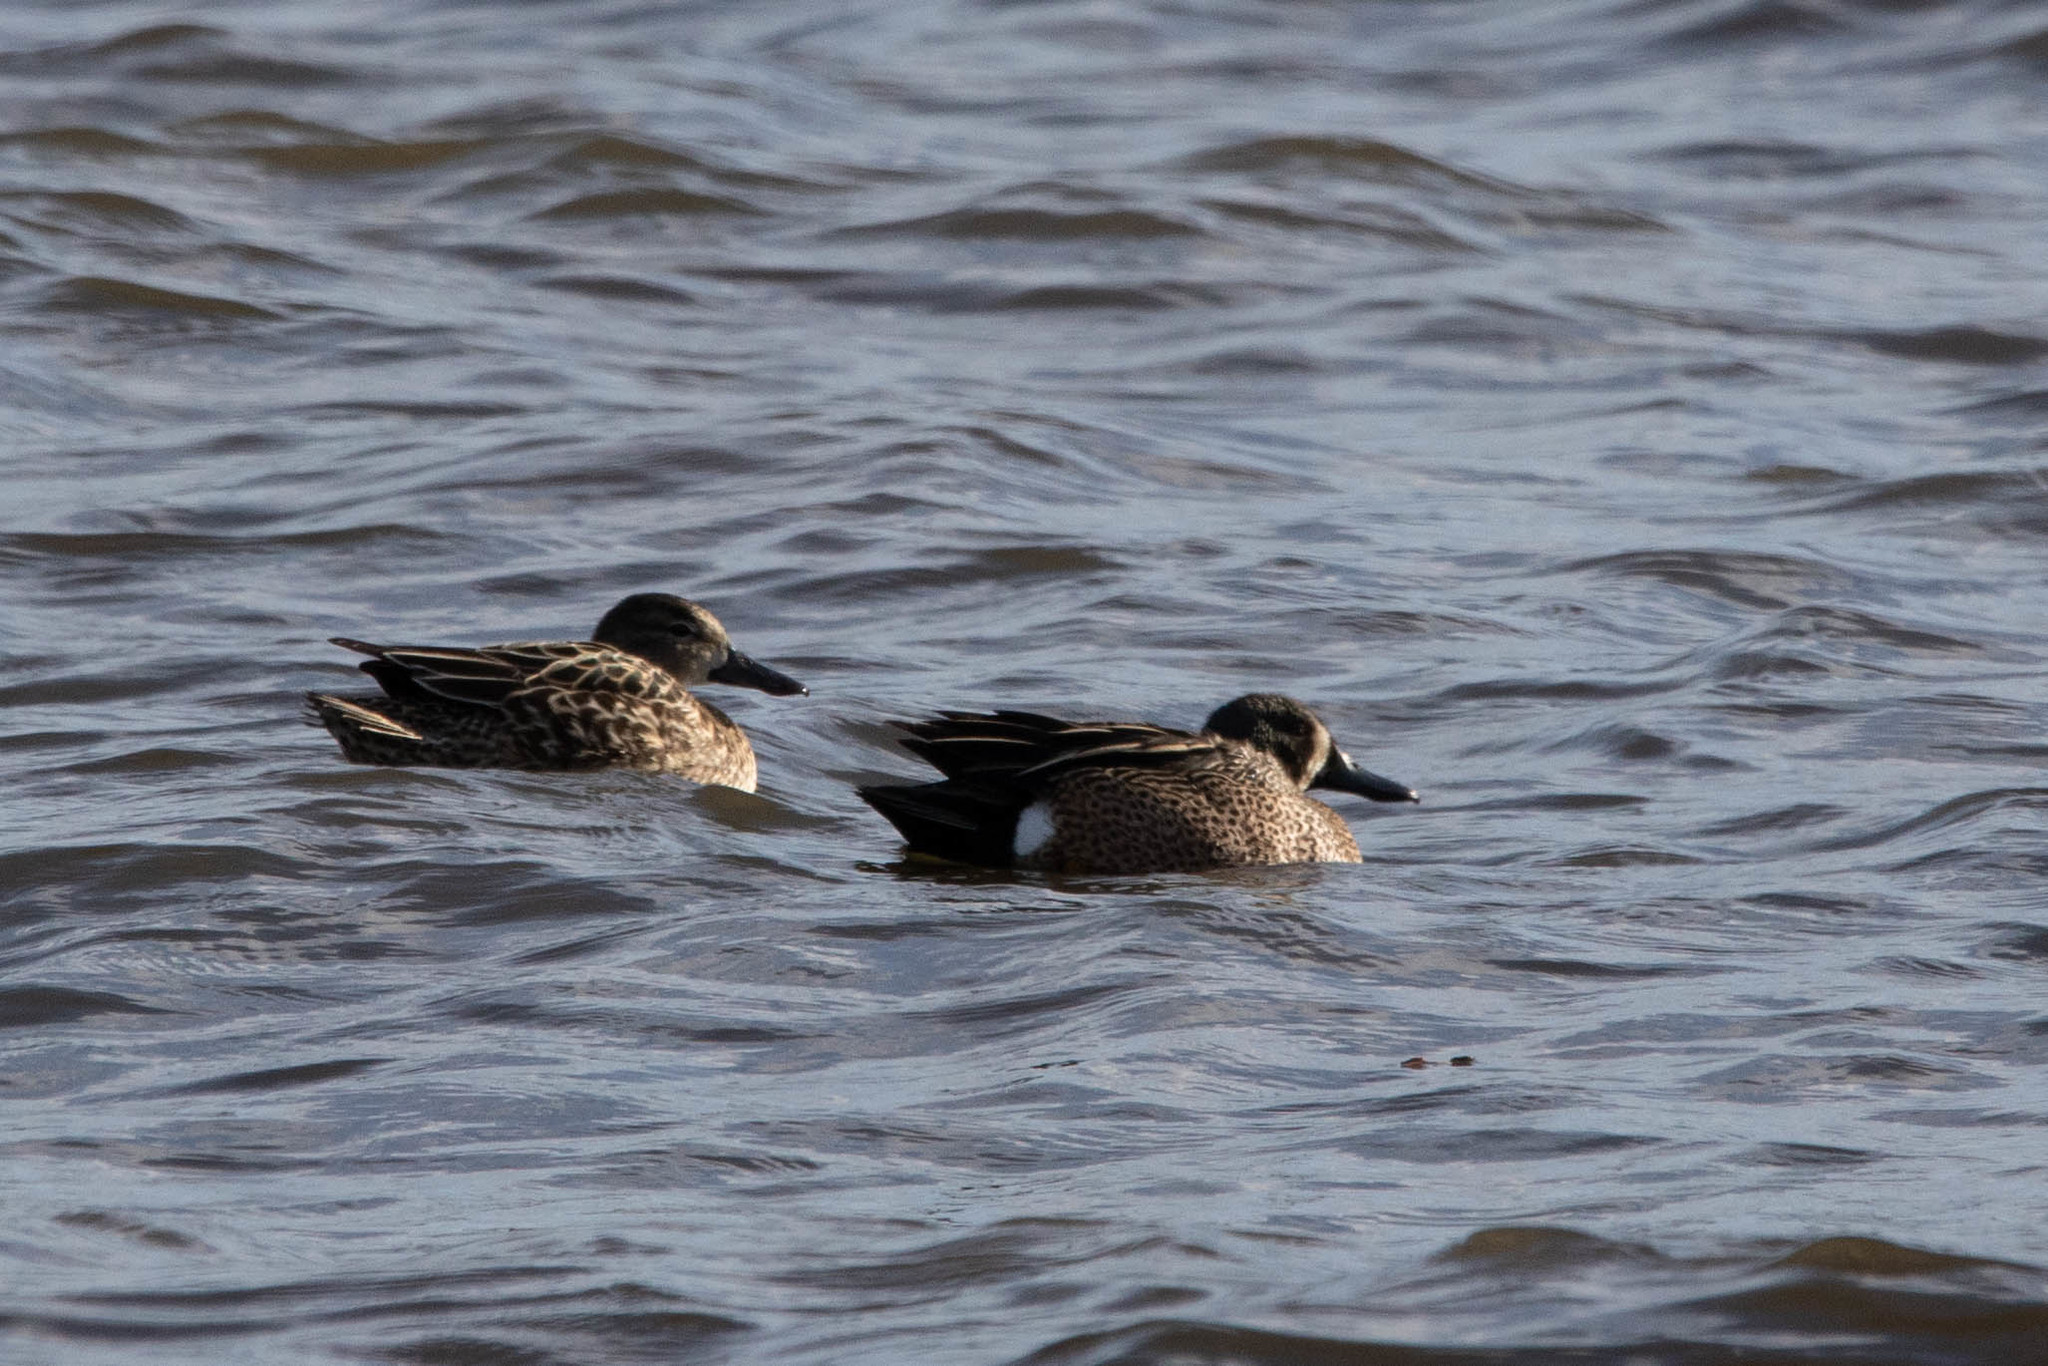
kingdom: Animalia
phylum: Chordata
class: Aves
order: Anseriformes
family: Anatidae
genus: Spatula
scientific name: Spatula discors
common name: Blue-winged teal
